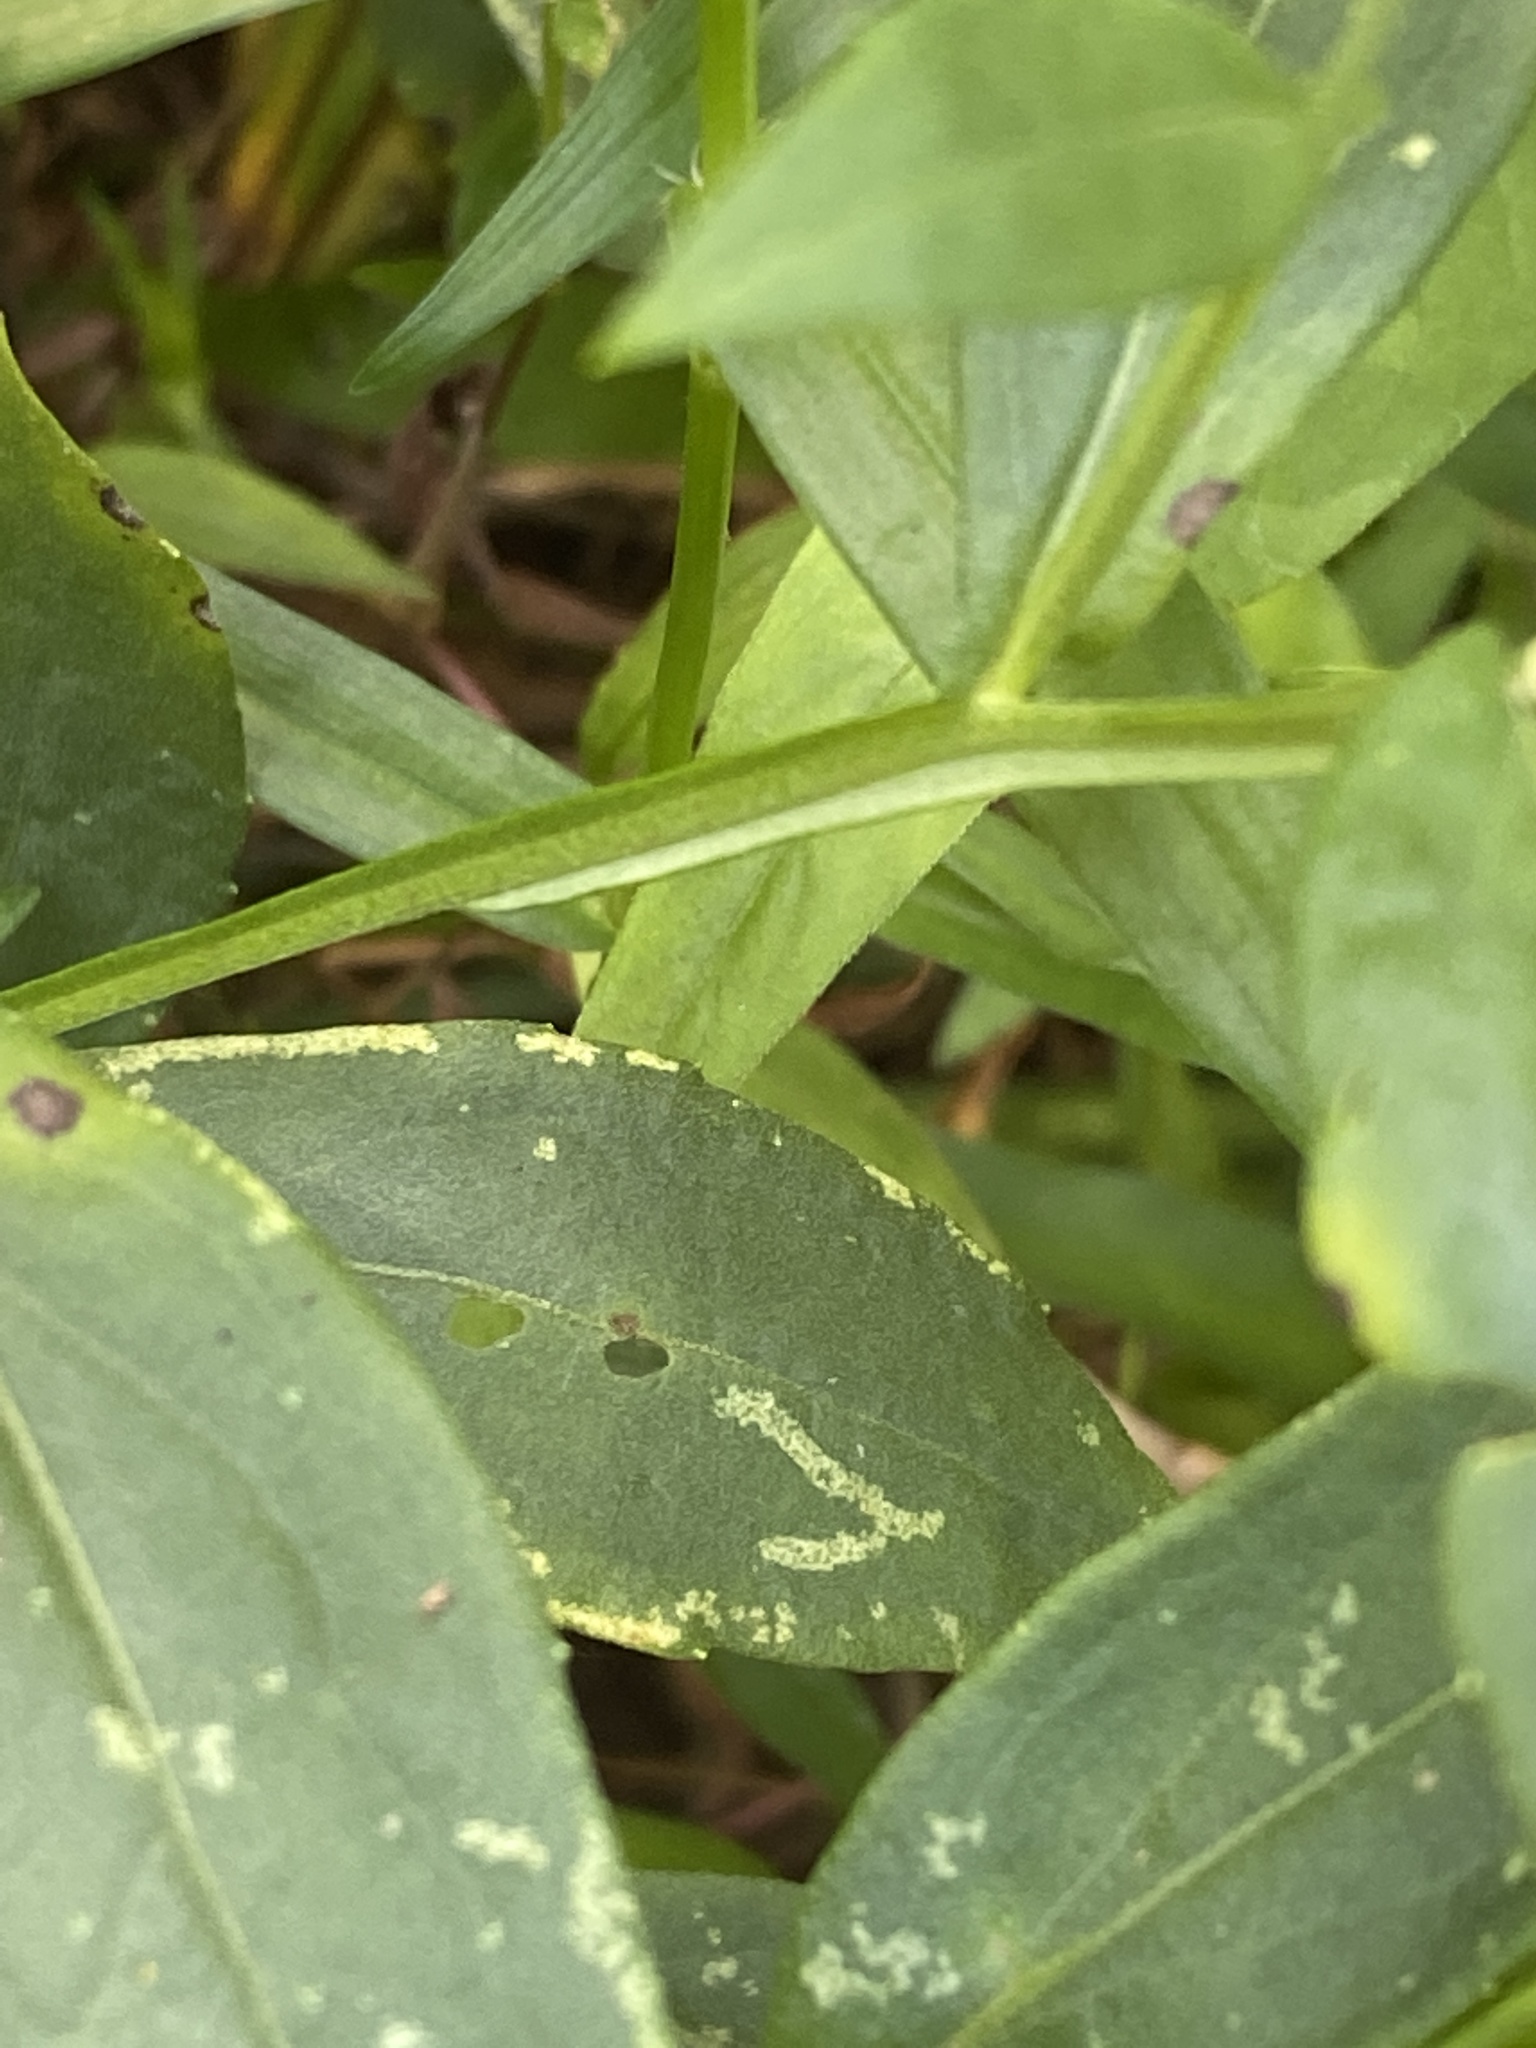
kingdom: Plantae
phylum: Tracheophyta
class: Magnoliopsida
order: Asterales
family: Asteraceae
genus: Helenium
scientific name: Helenium autumnale
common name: Sneezeweed
